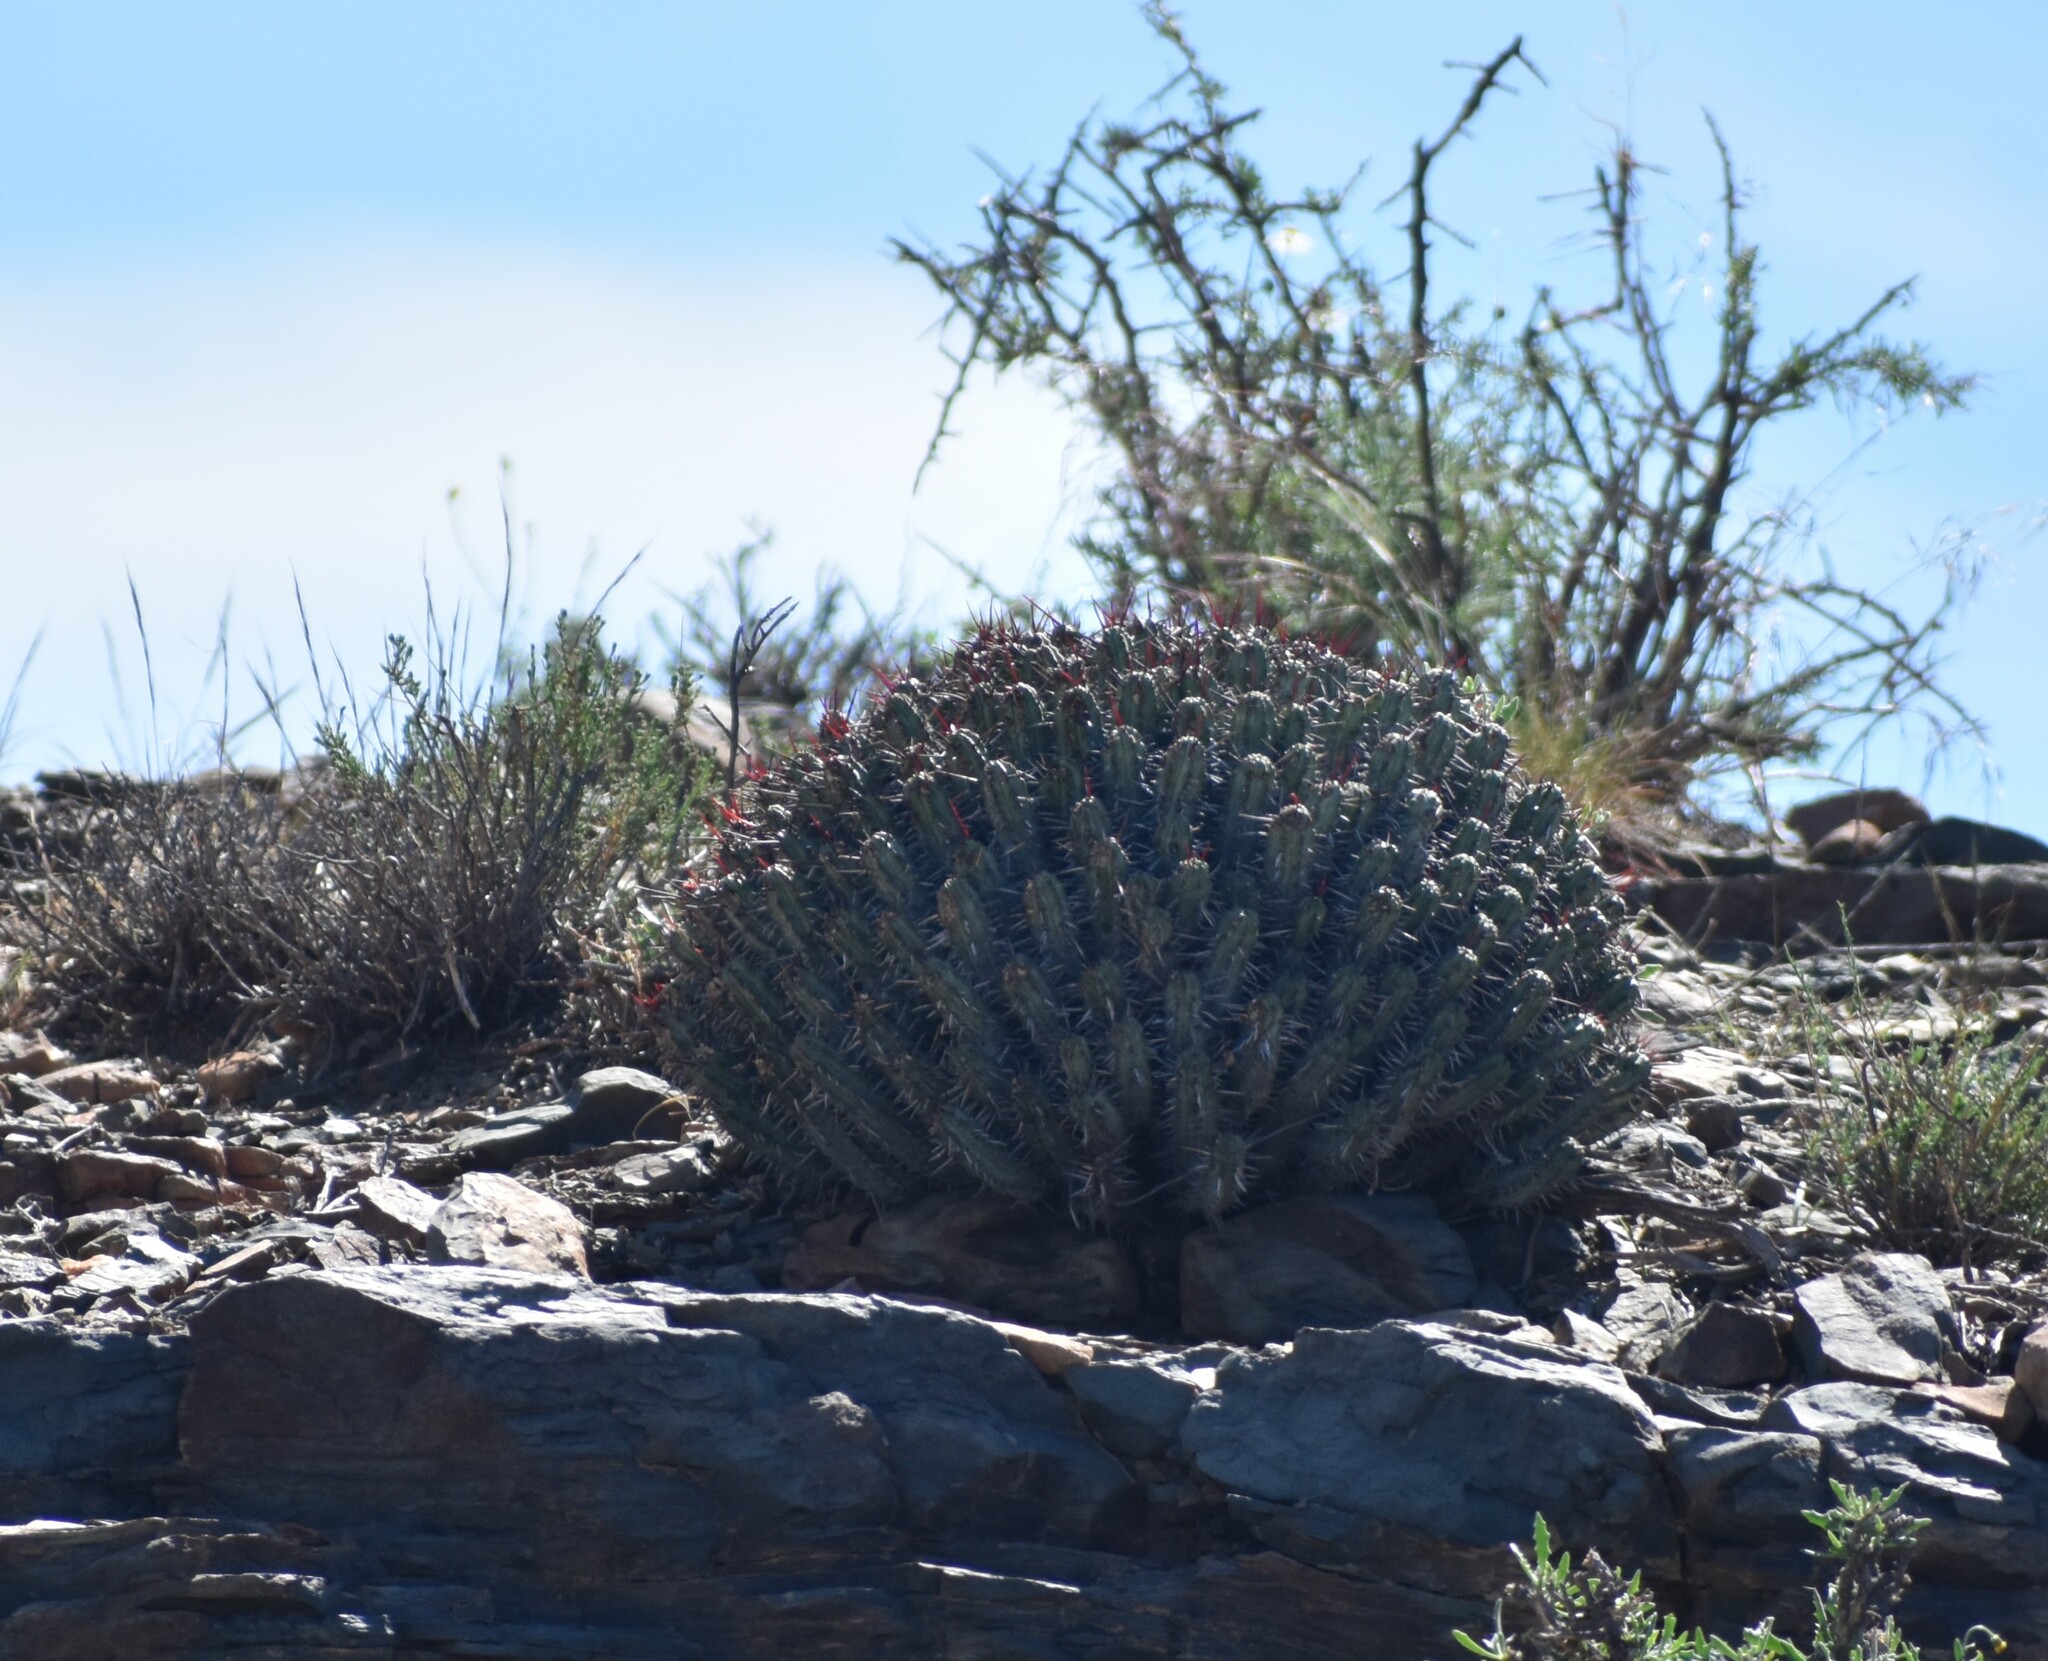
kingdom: Plantae
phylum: Tracheophyta
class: Magnoliopsida
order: Malpighiales
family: Euphorbiaceae
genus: Euphorbia
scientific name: Euphorbia heptagona
